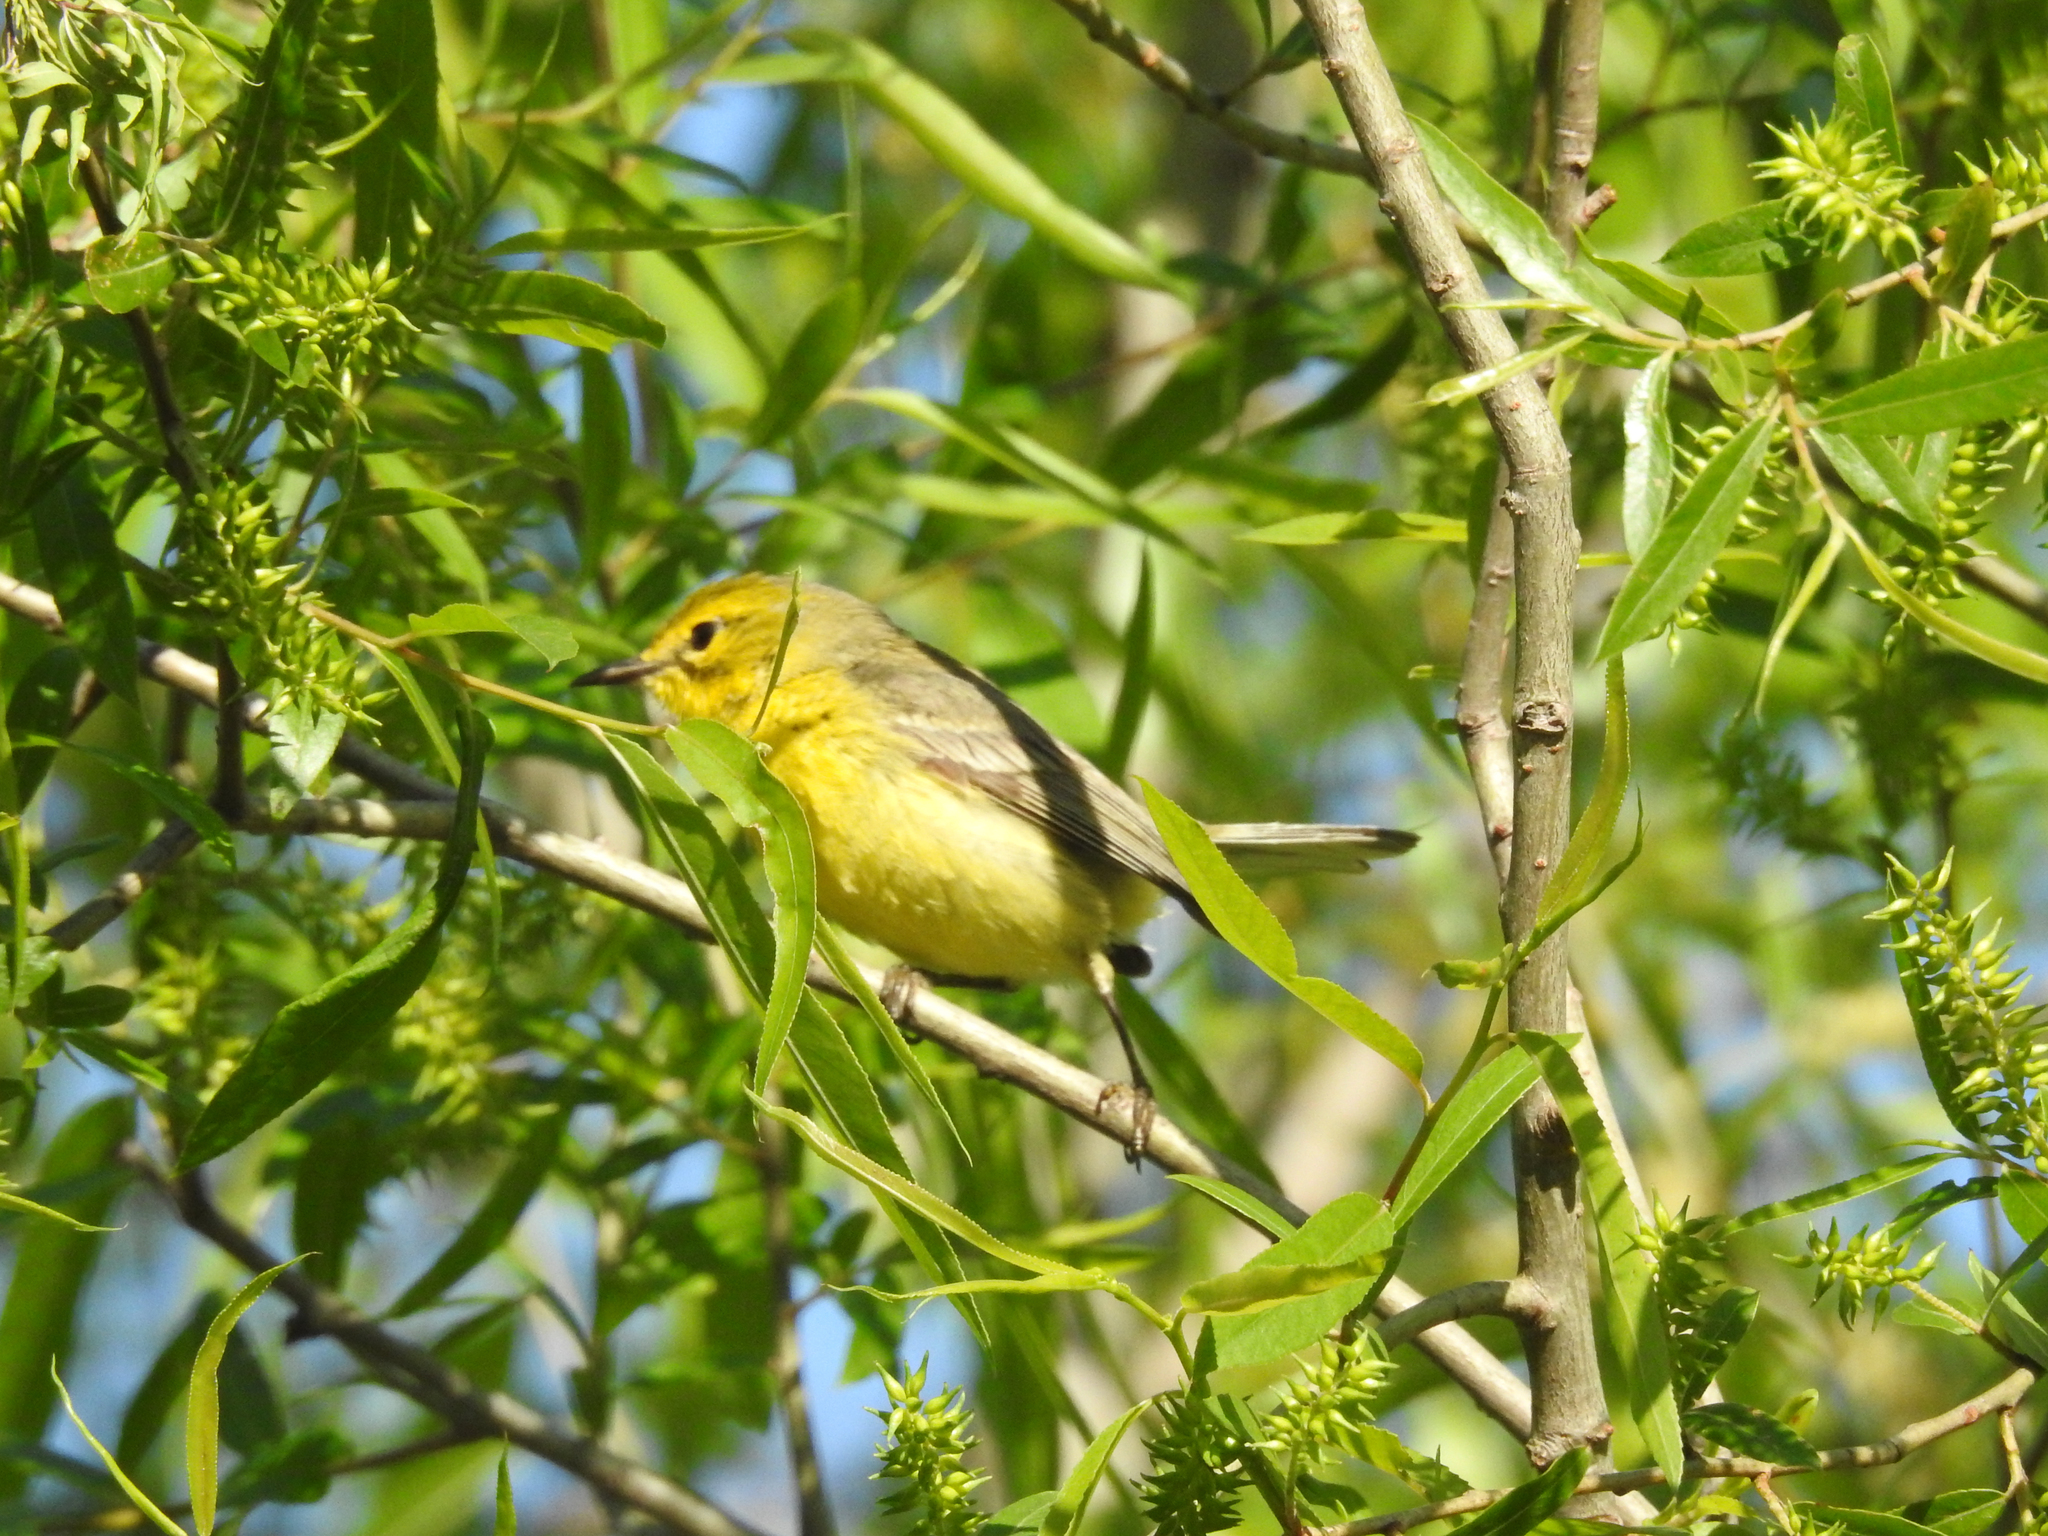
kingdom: Animalia
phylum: Chordata
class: Aves
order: Passeriformes
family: Parulidae
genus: Setophaga
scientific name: Setophaga pinus
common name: Pine warbler
